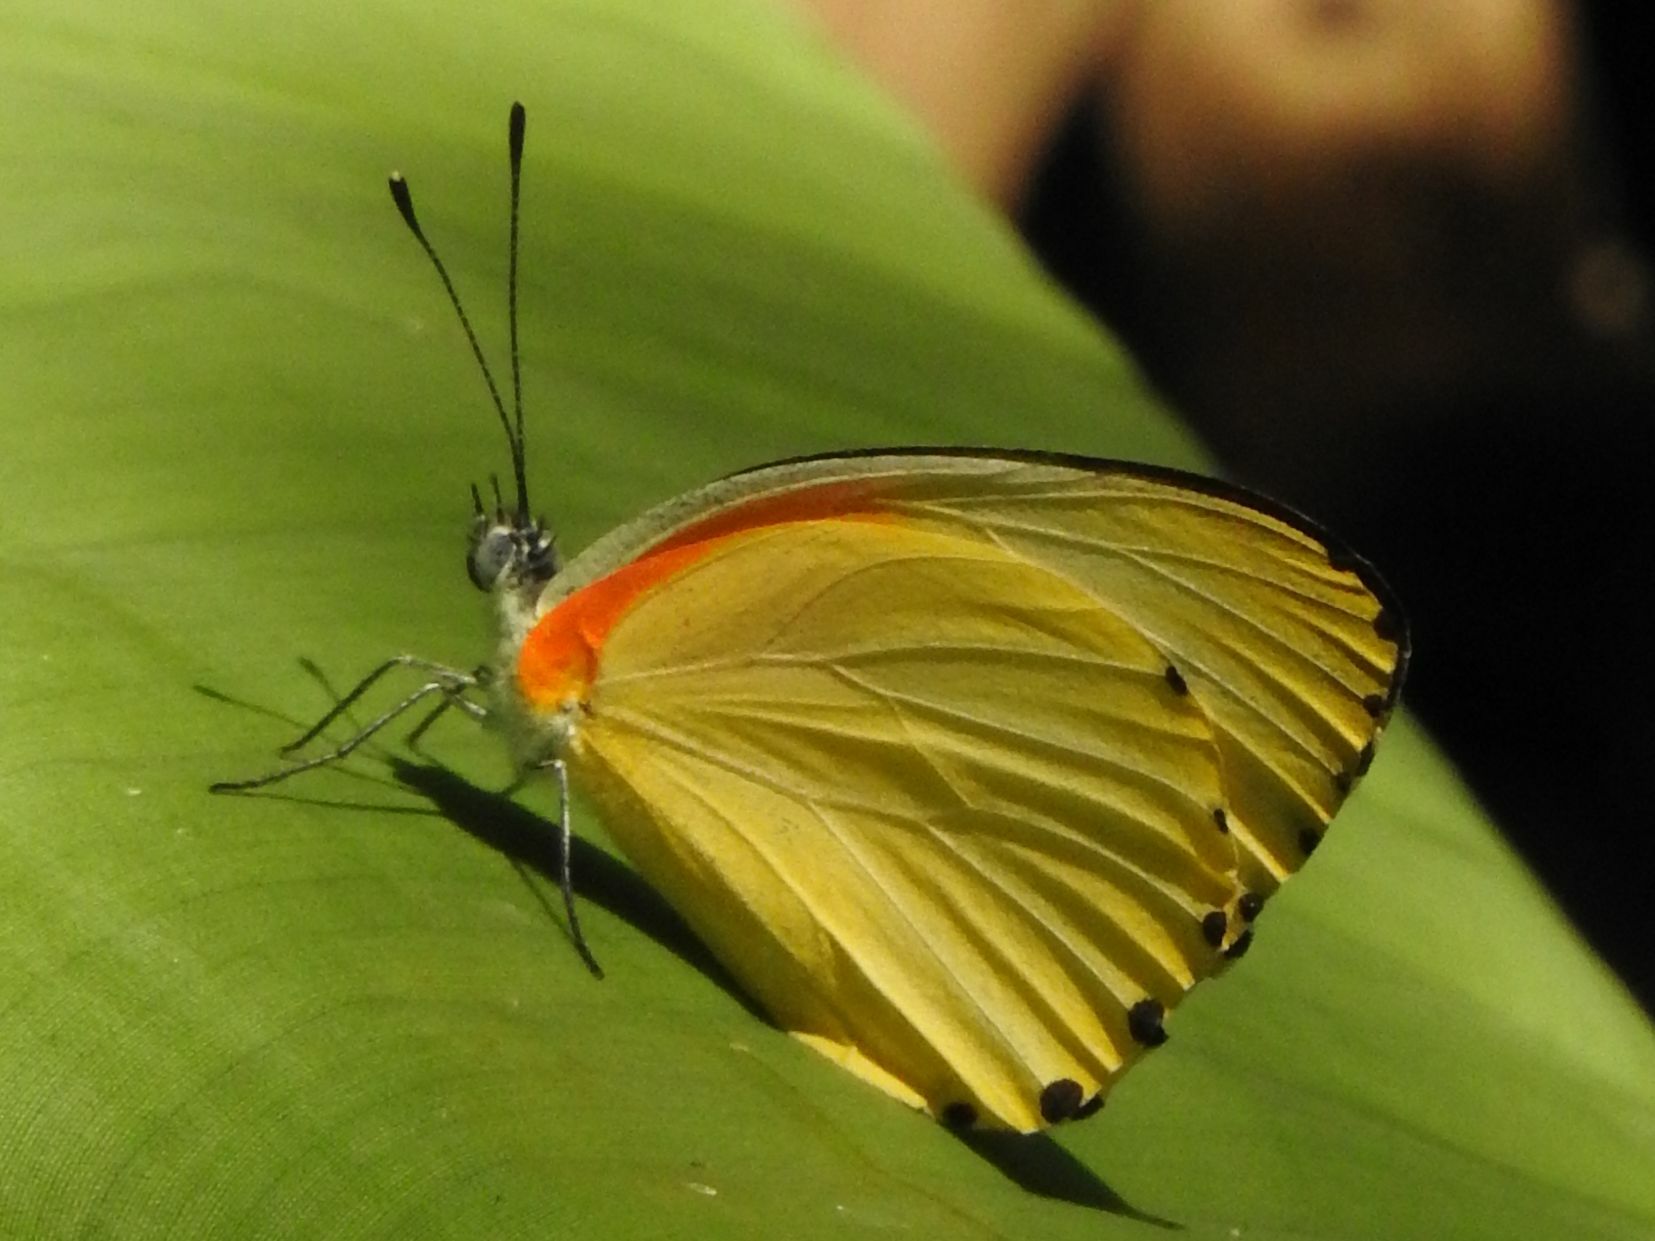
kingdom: Animalia
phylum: Arthropoda
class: Insecta
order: Lepidoptera
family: Pieridae
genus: Mylothris
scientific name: Mylothris agathina
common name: Eastern dotted border
